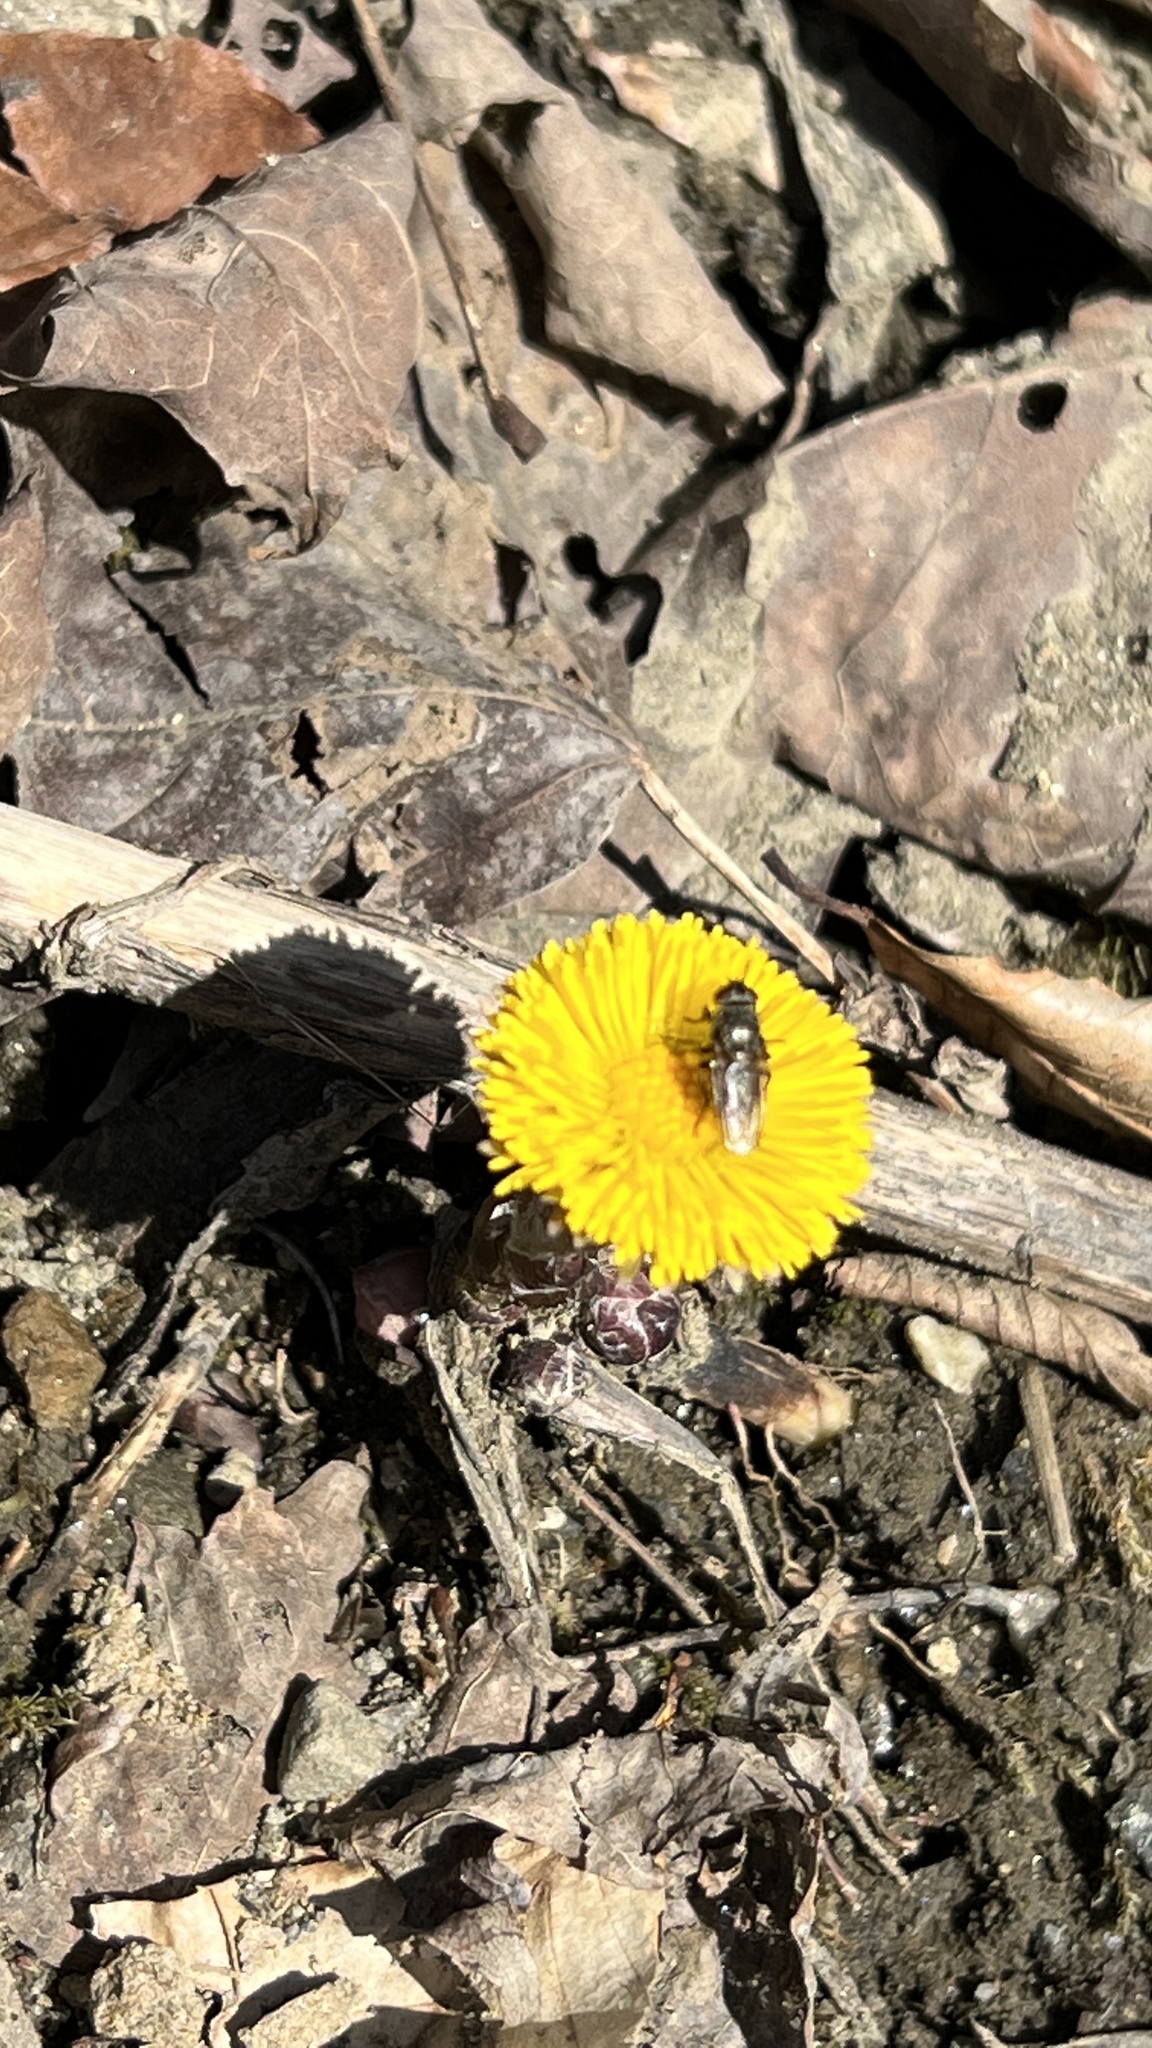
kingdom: Plantae
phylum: Tracheophyta
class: Magnoliopsida
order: Asterales
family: Asteraceae
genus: Tussilago
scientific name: Tussilago farfara
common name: Coltsfoot
